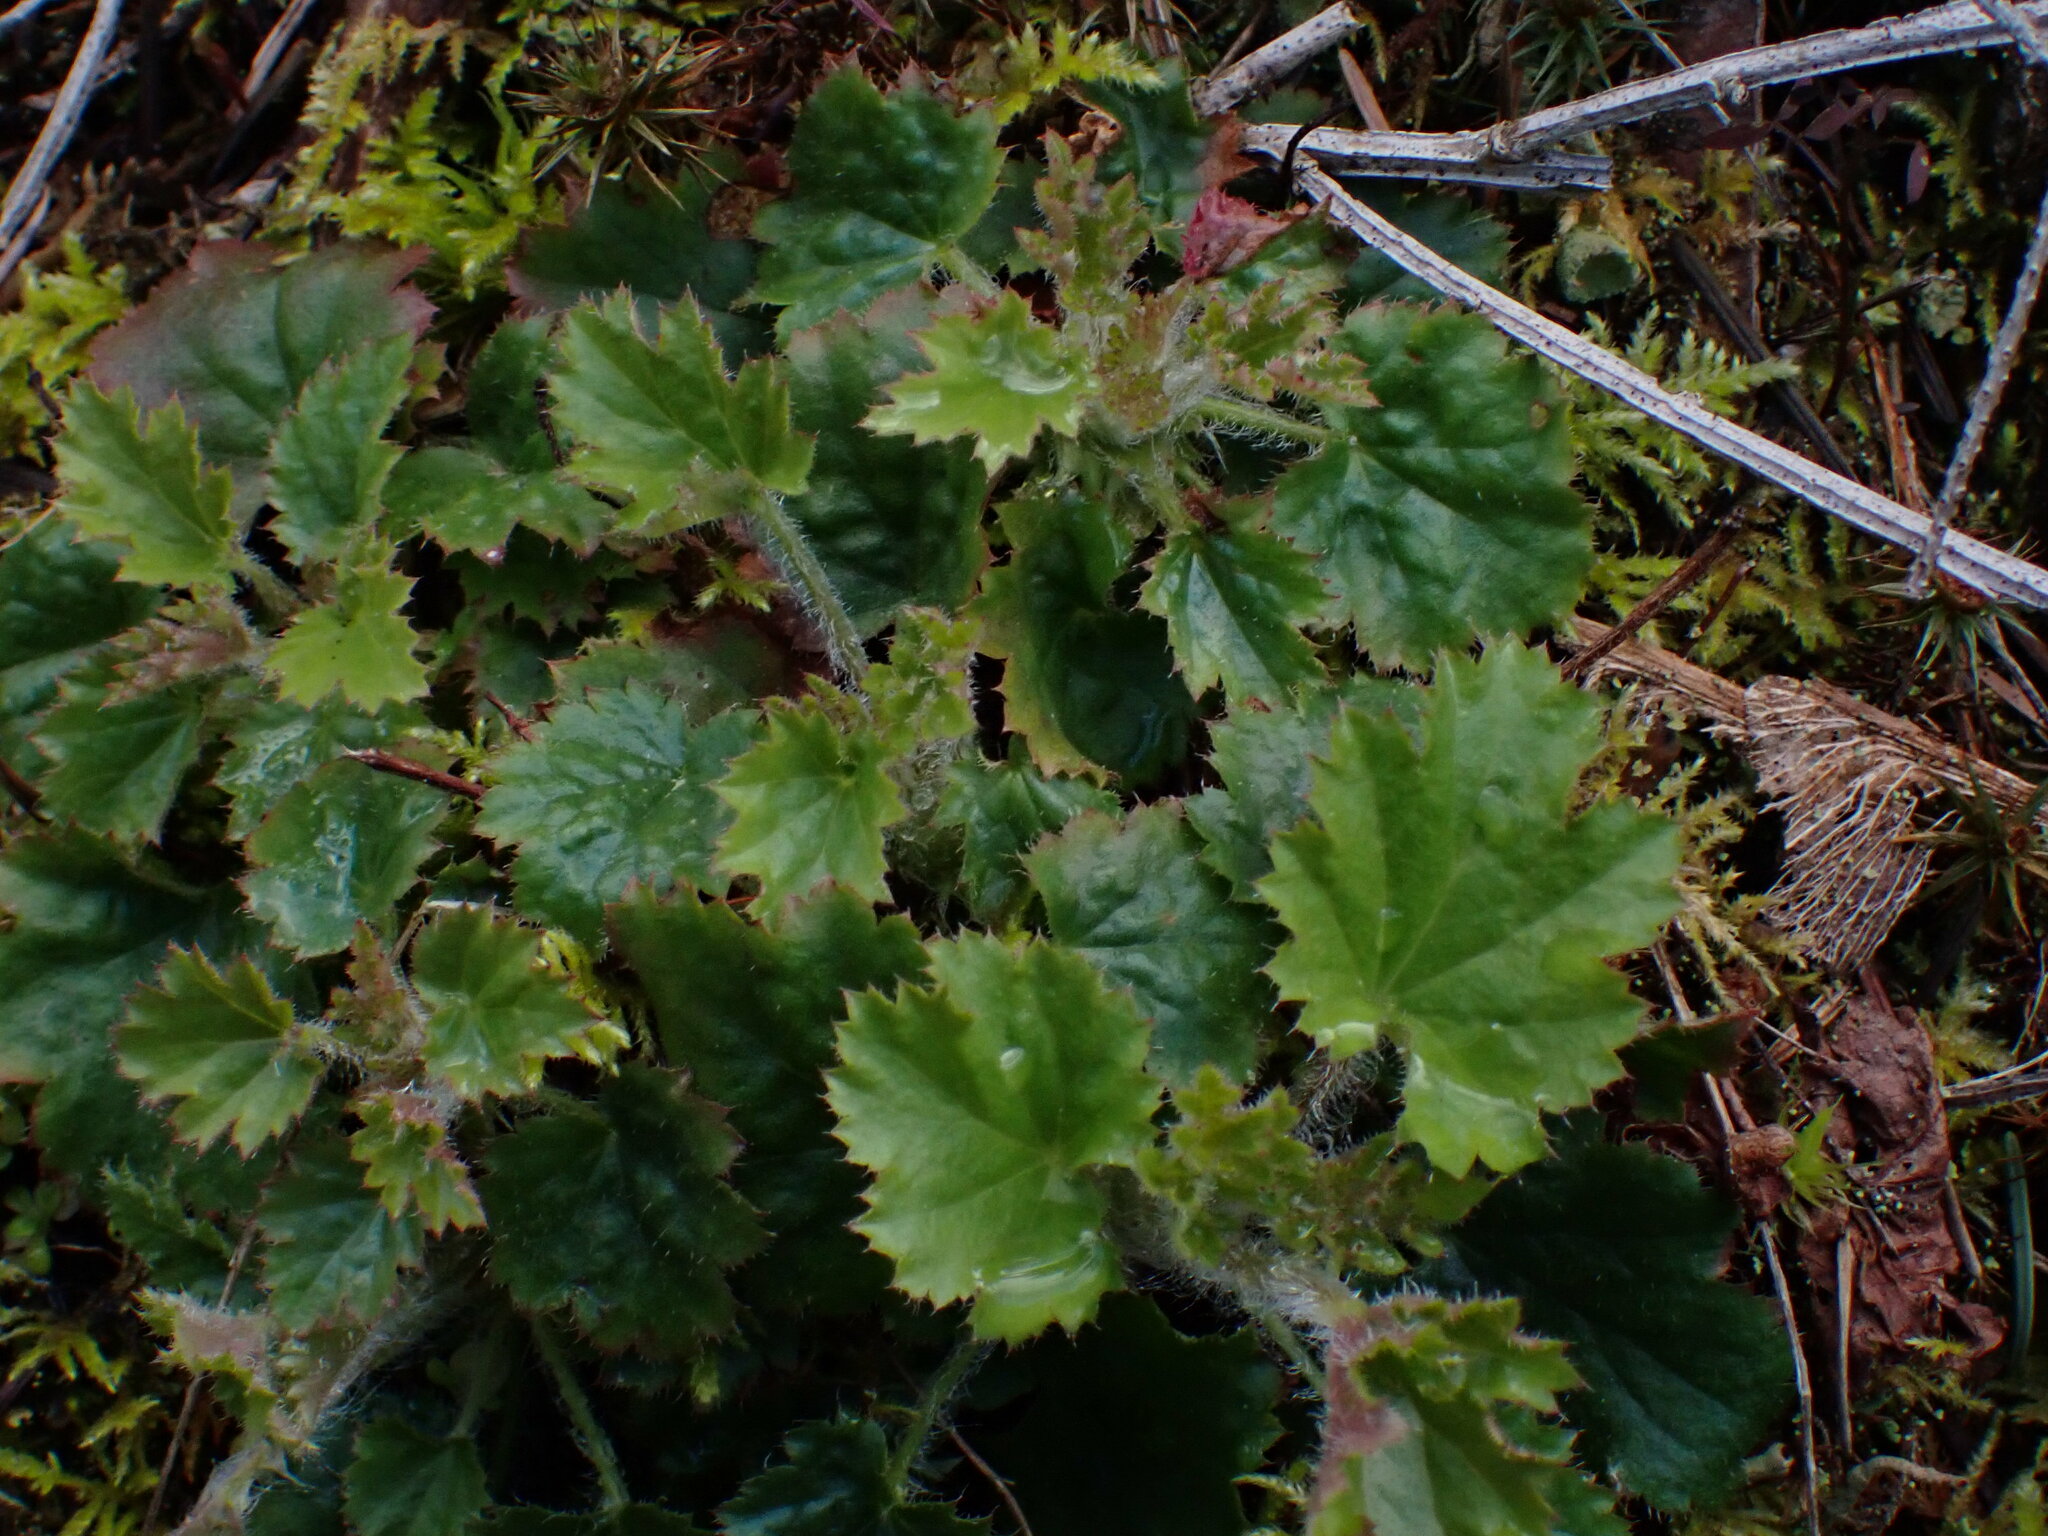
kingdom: Plantae
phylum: Tracheophyta
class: Magnoliopsida
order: Saxifragales
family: Saxifragaceae
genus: Heuchera
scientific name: Heuchera micrantha
